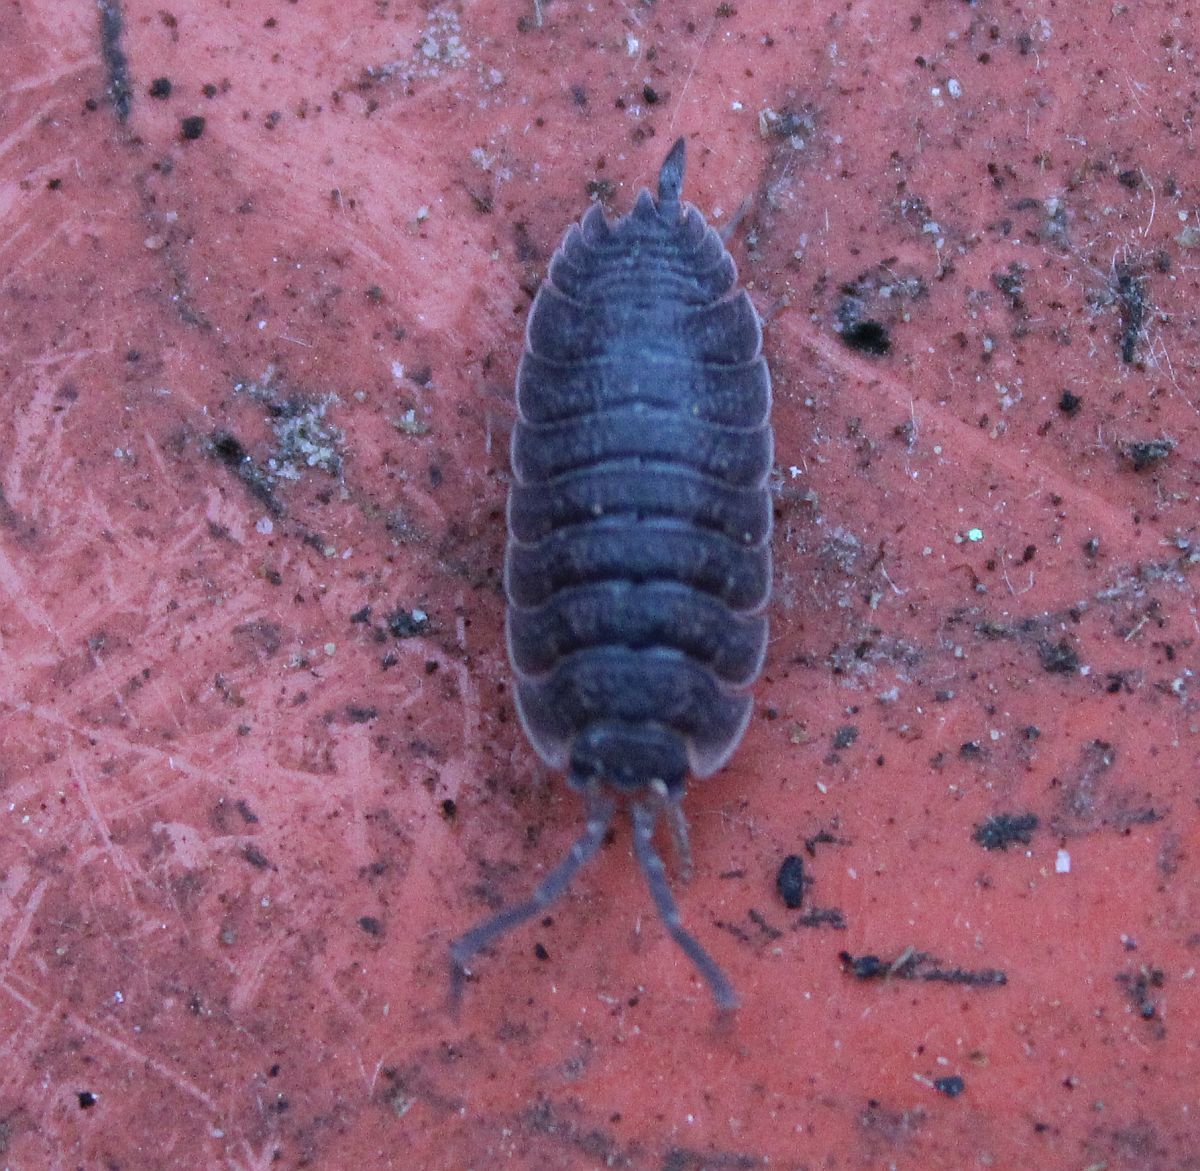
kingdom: Animalia
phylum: Arthropoda
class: Malacostraca
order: Isopoda
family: Porcellionidae
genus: Porcellio
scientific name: Porcellio scaber
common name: Common rough woodlouse
